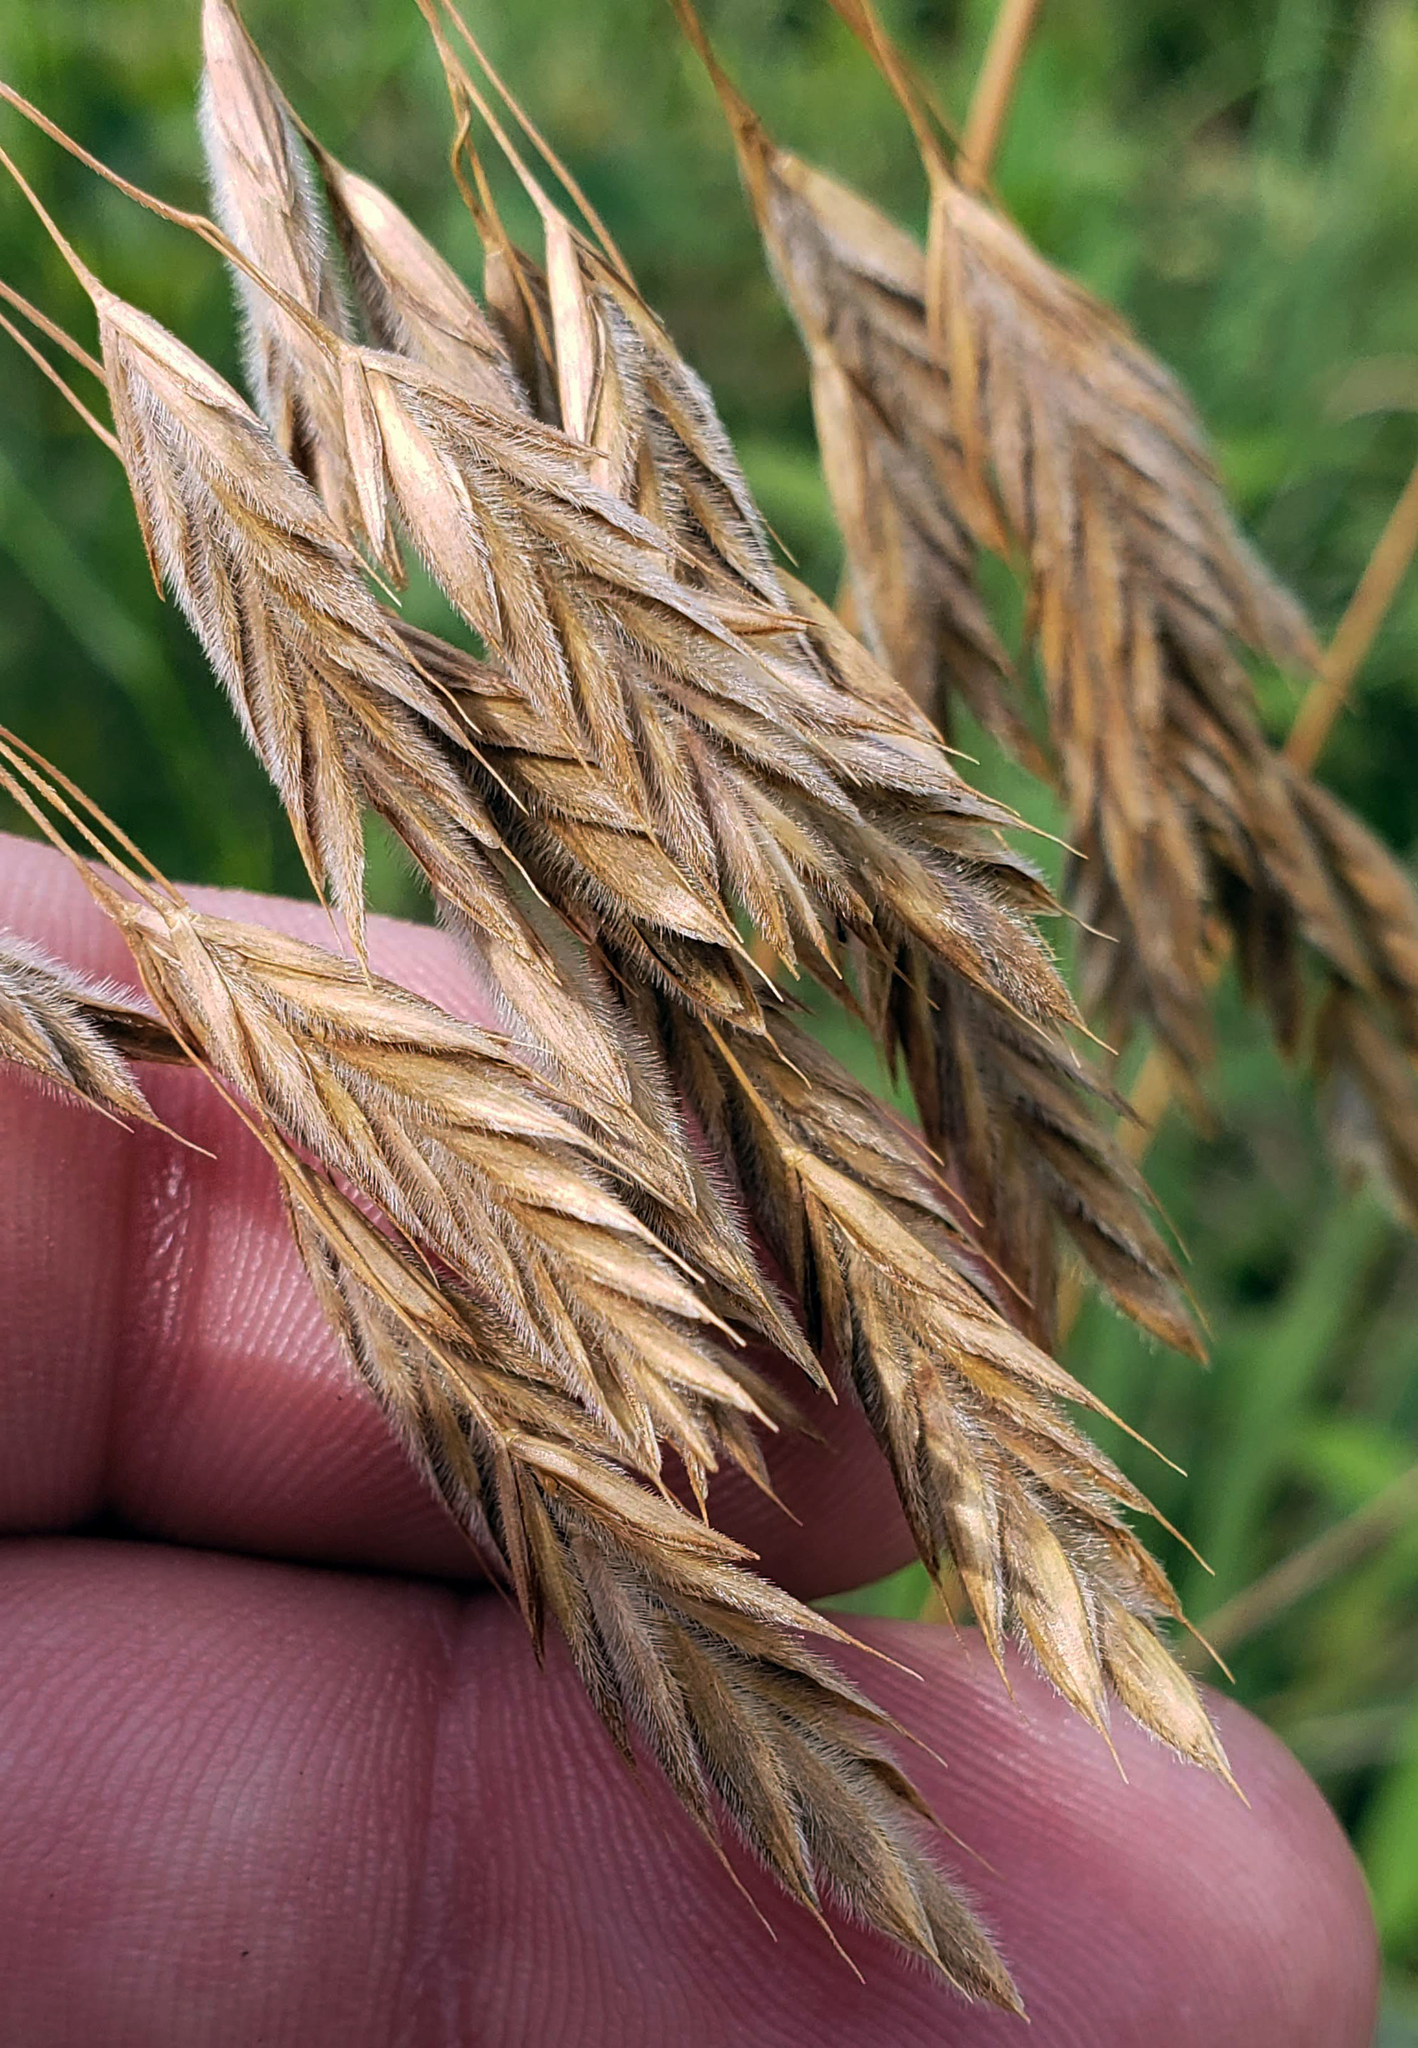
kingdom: Plantae
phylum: Tracheophyta
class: Liliopsida
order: Poales
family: Poaceae
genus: Bromus
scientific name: Bromus kalmii
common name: Kalm brome
